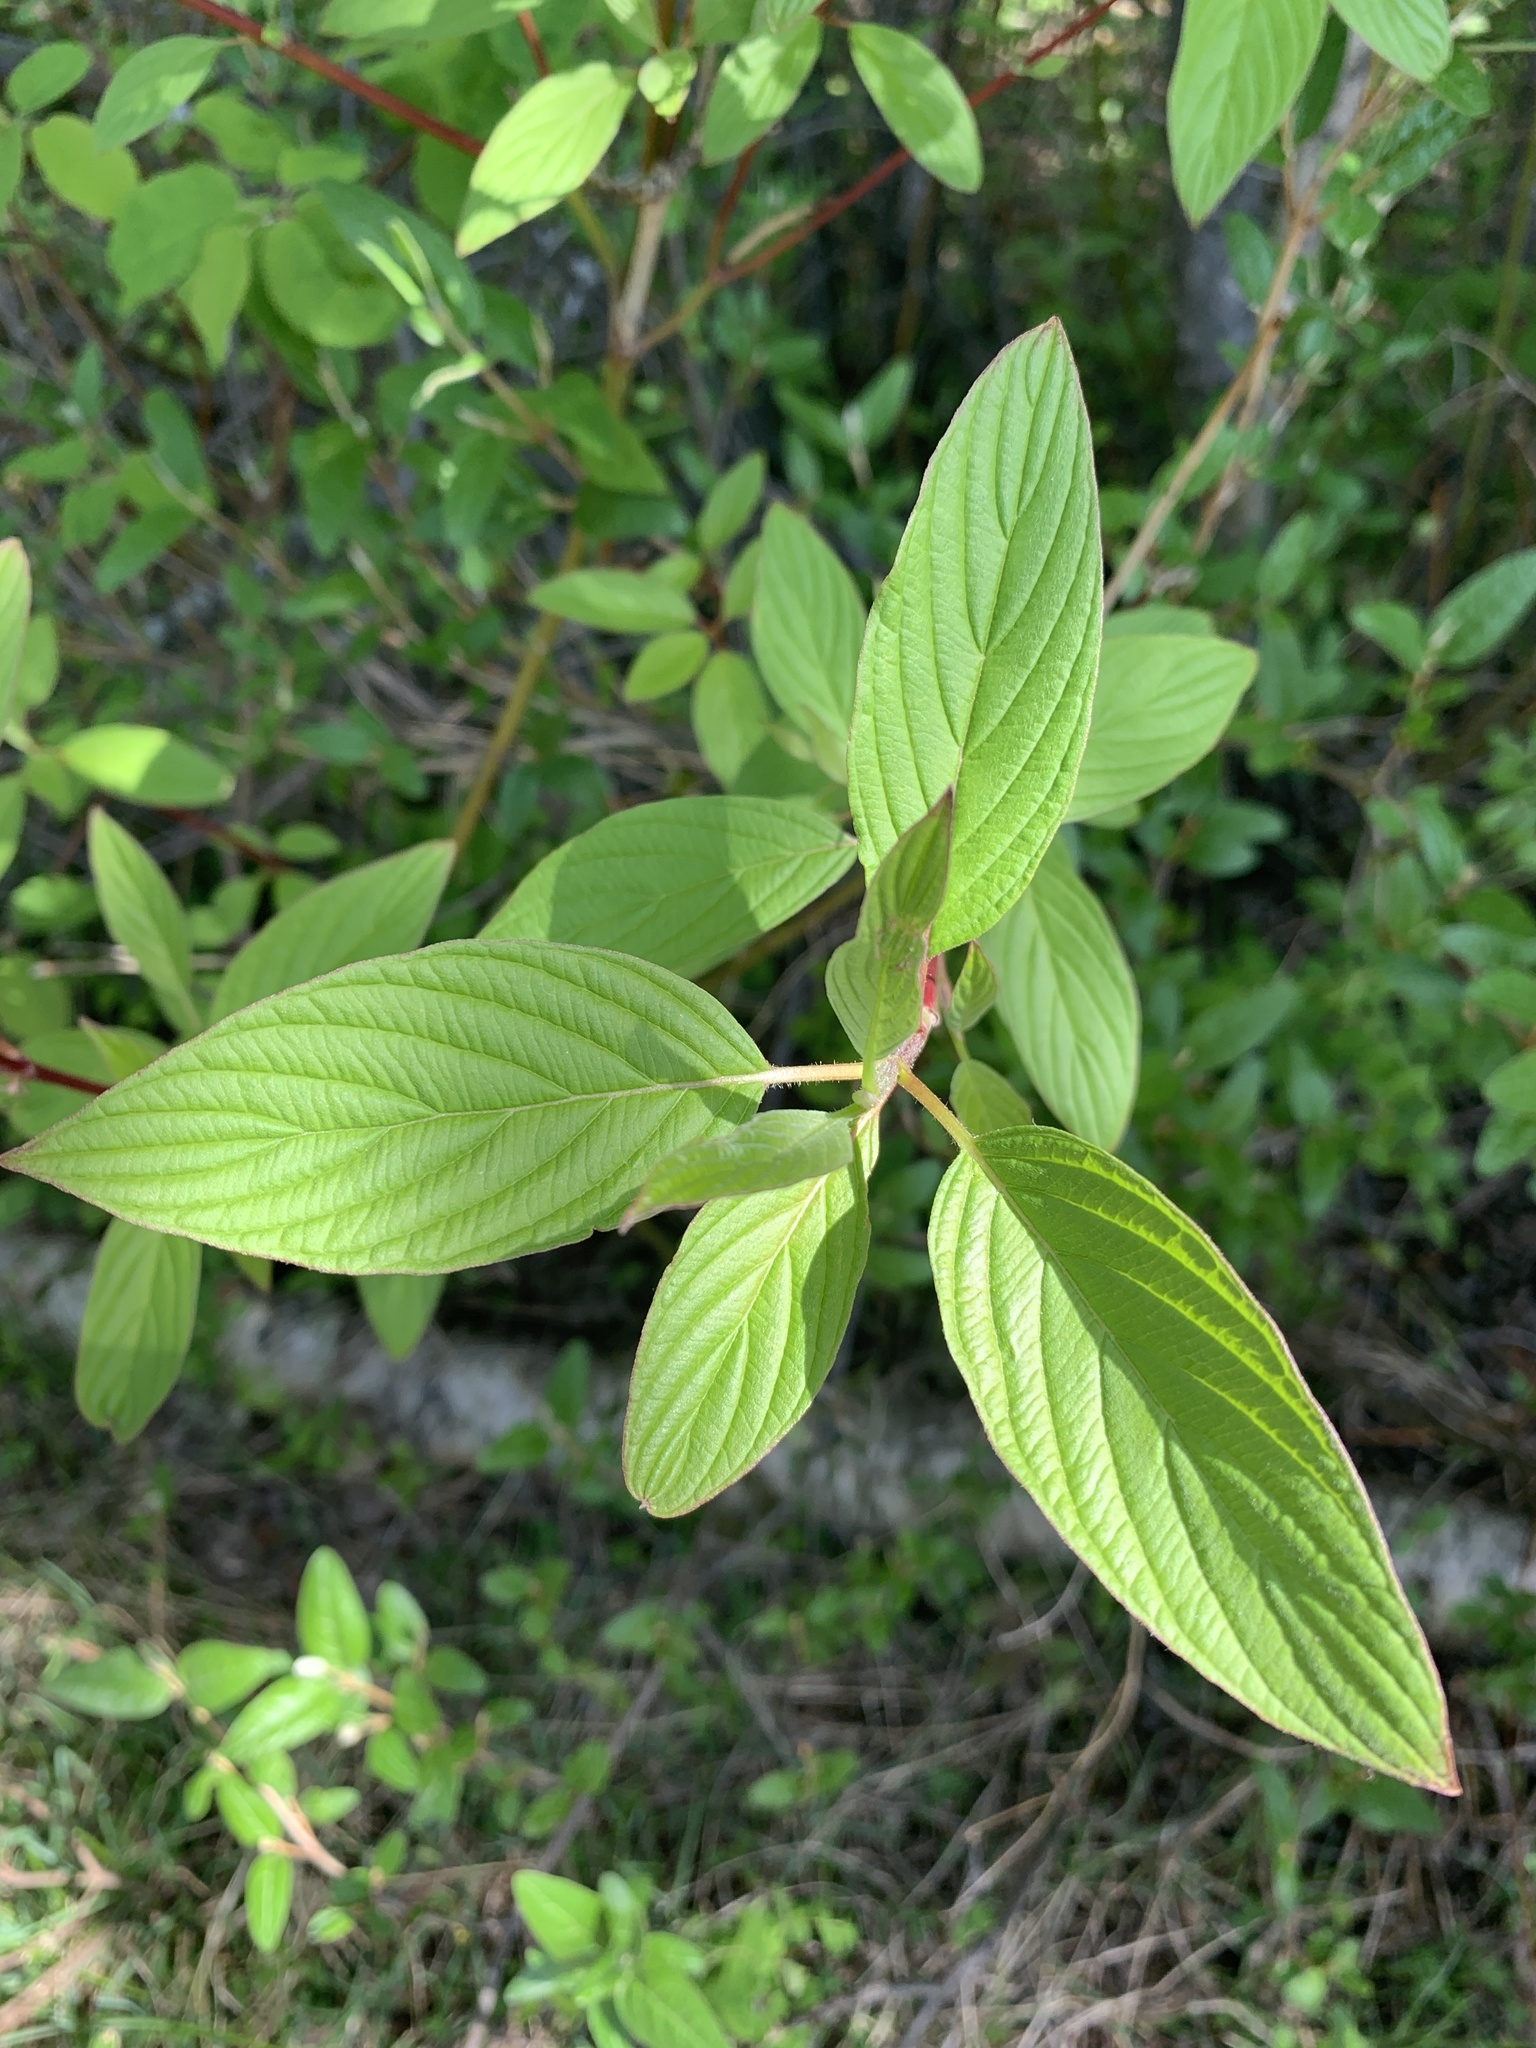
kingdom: Plantae
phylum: Tracheophyta
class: Magnoliopsida
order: Cornales
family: Cornaceae
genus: Cornus
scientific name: Cornus sericea
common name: Red-osier dogwood
